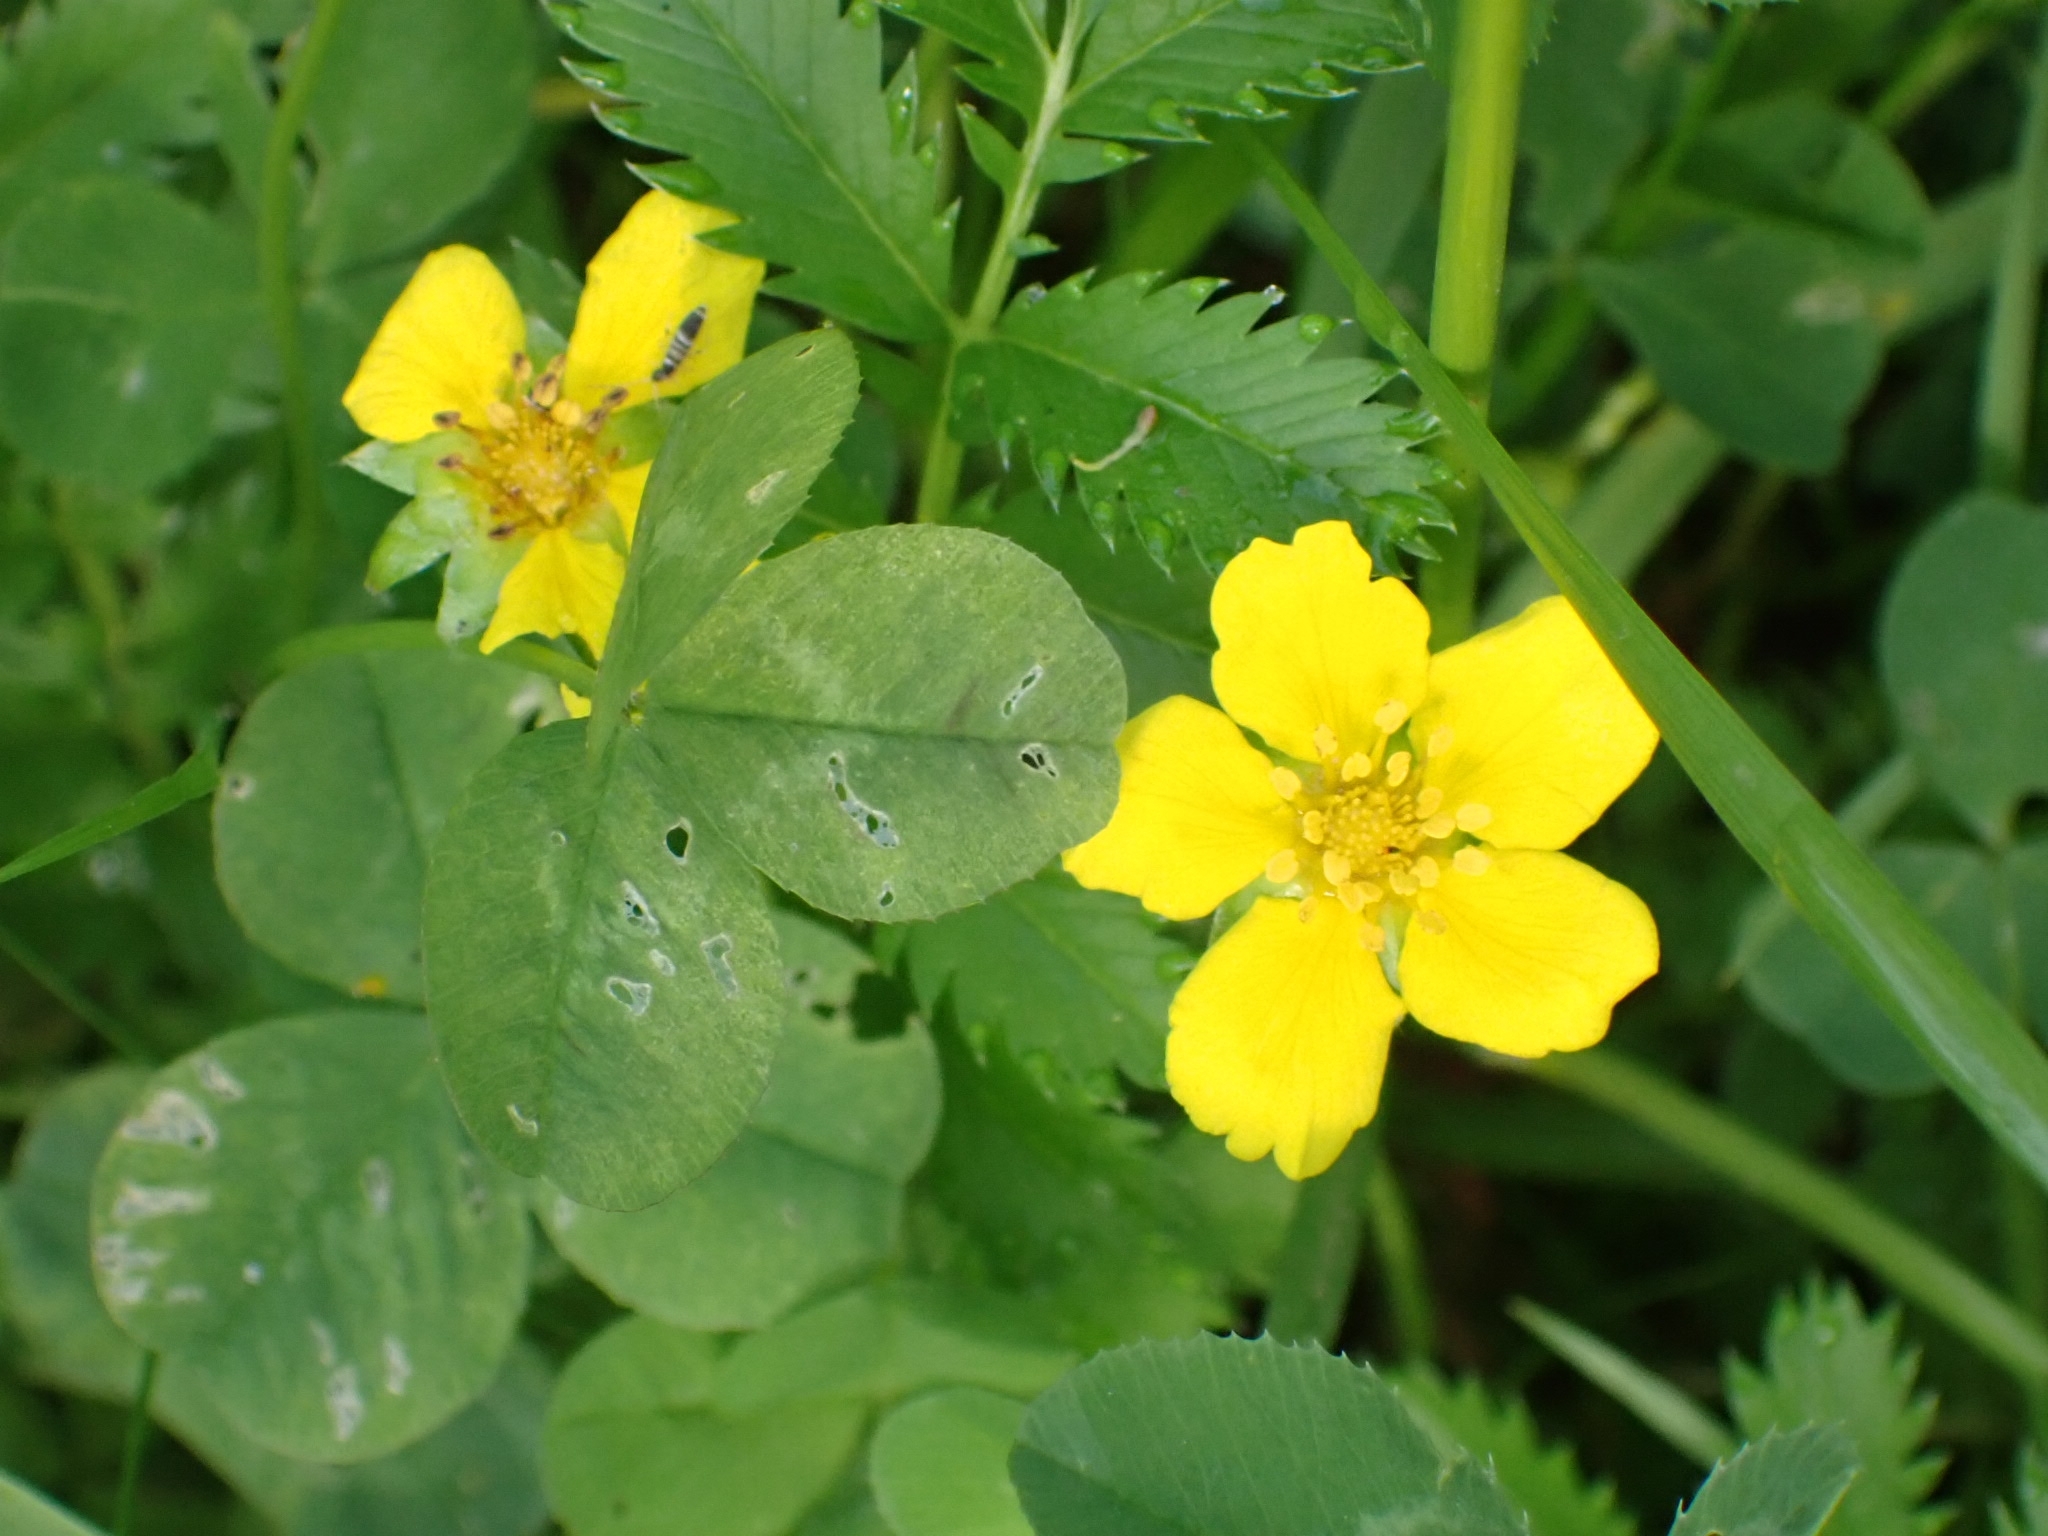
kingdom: Plantae
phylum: Tracheophyta
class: Magnoliopsida
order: Rosales
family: Rosaceae
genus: Argentina
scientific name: Argentina anserina
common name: Common silverweed
